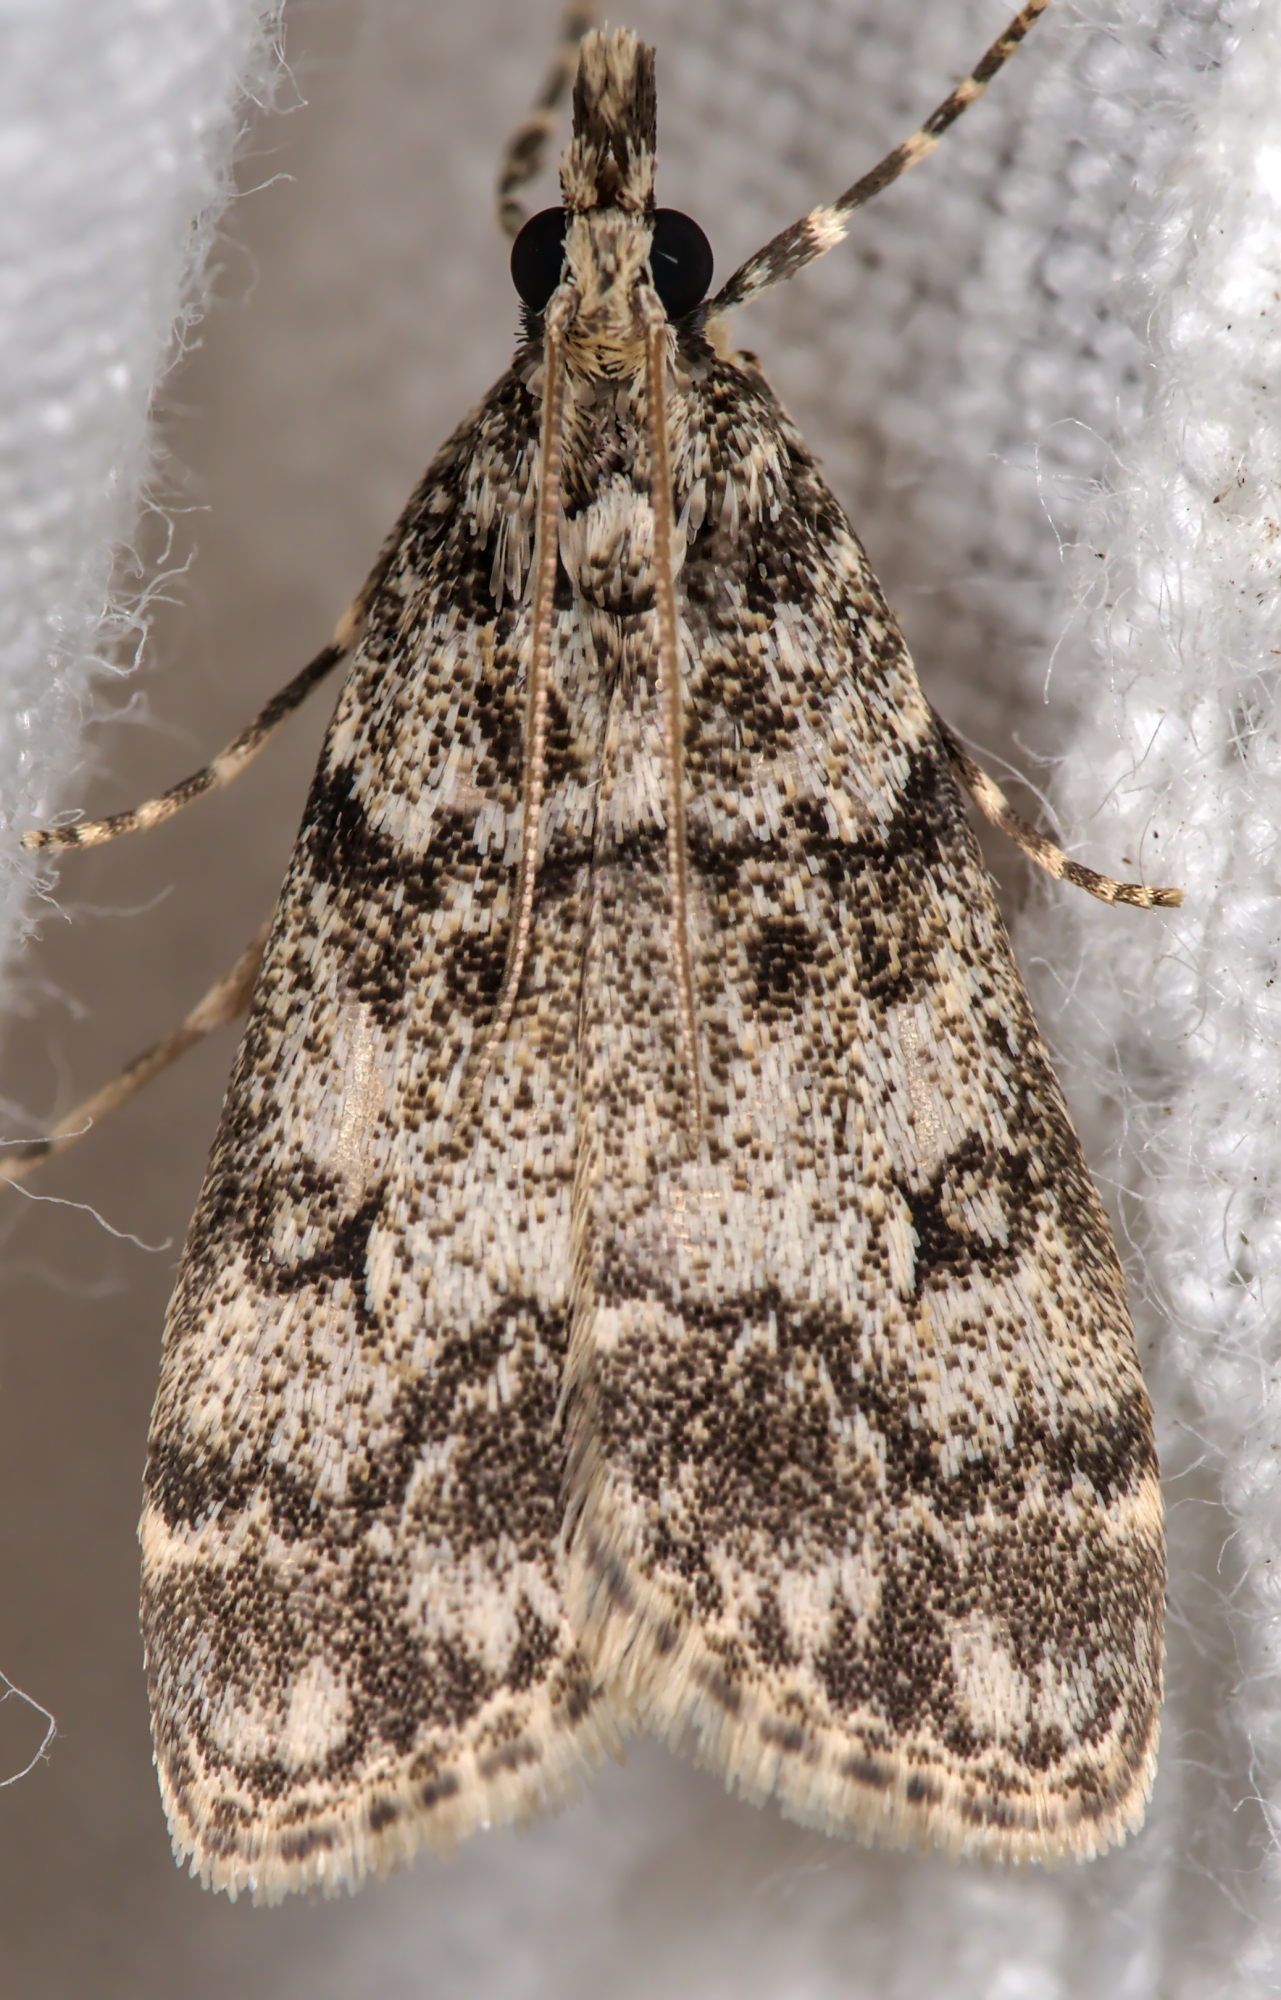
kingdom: Animalia
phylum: Arthropoda
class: Insecta
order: Lepidoptera
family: Crambidae
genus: Eudonia
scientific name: Eudonia lacustrata
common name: Little grey
